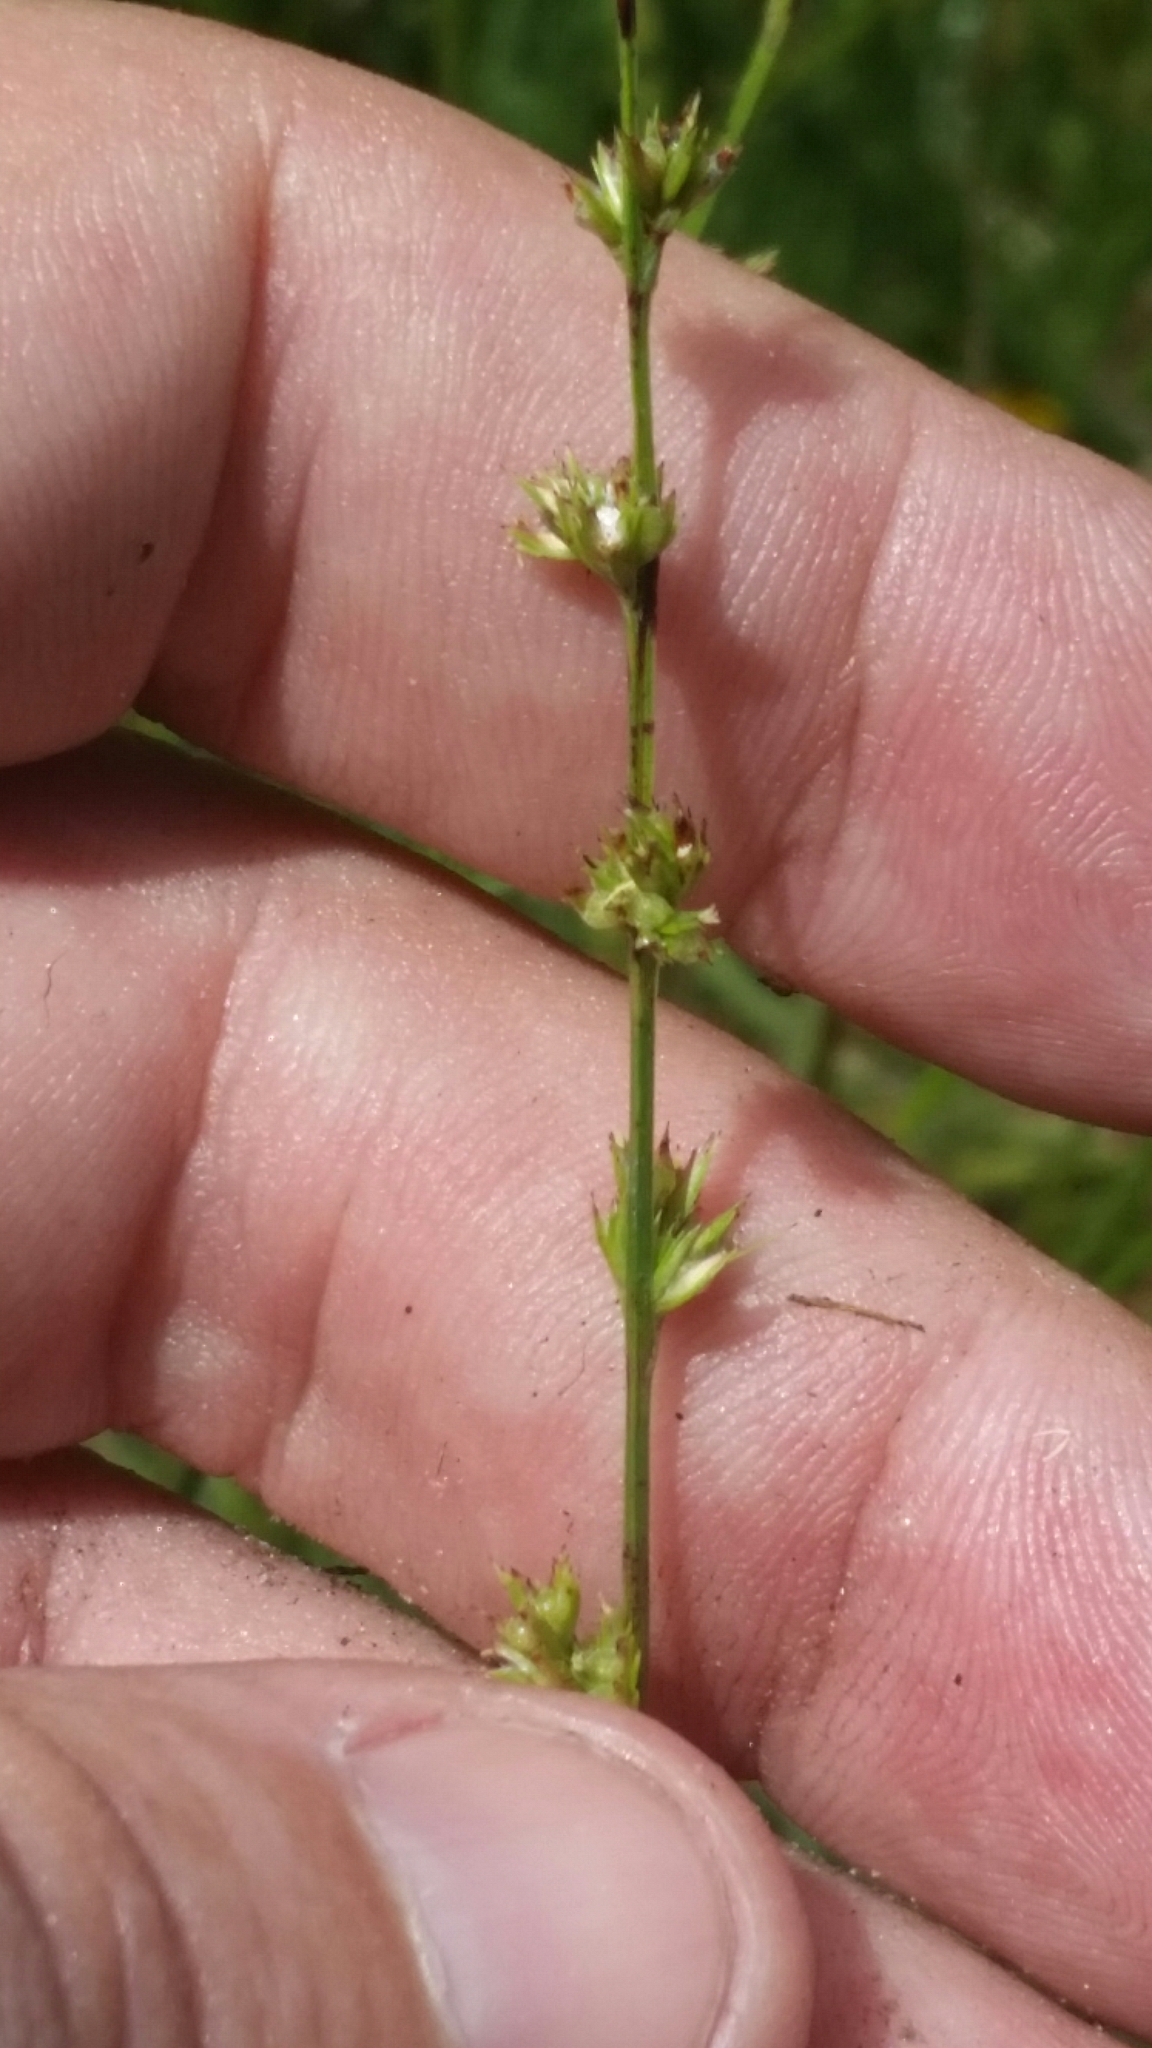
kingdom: Plantae
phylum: Tracheophyta
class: Liliopsida
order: Poales
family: Cyperaceae
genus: Scleria
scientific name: Scleria verticillata
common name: Low nutrush
